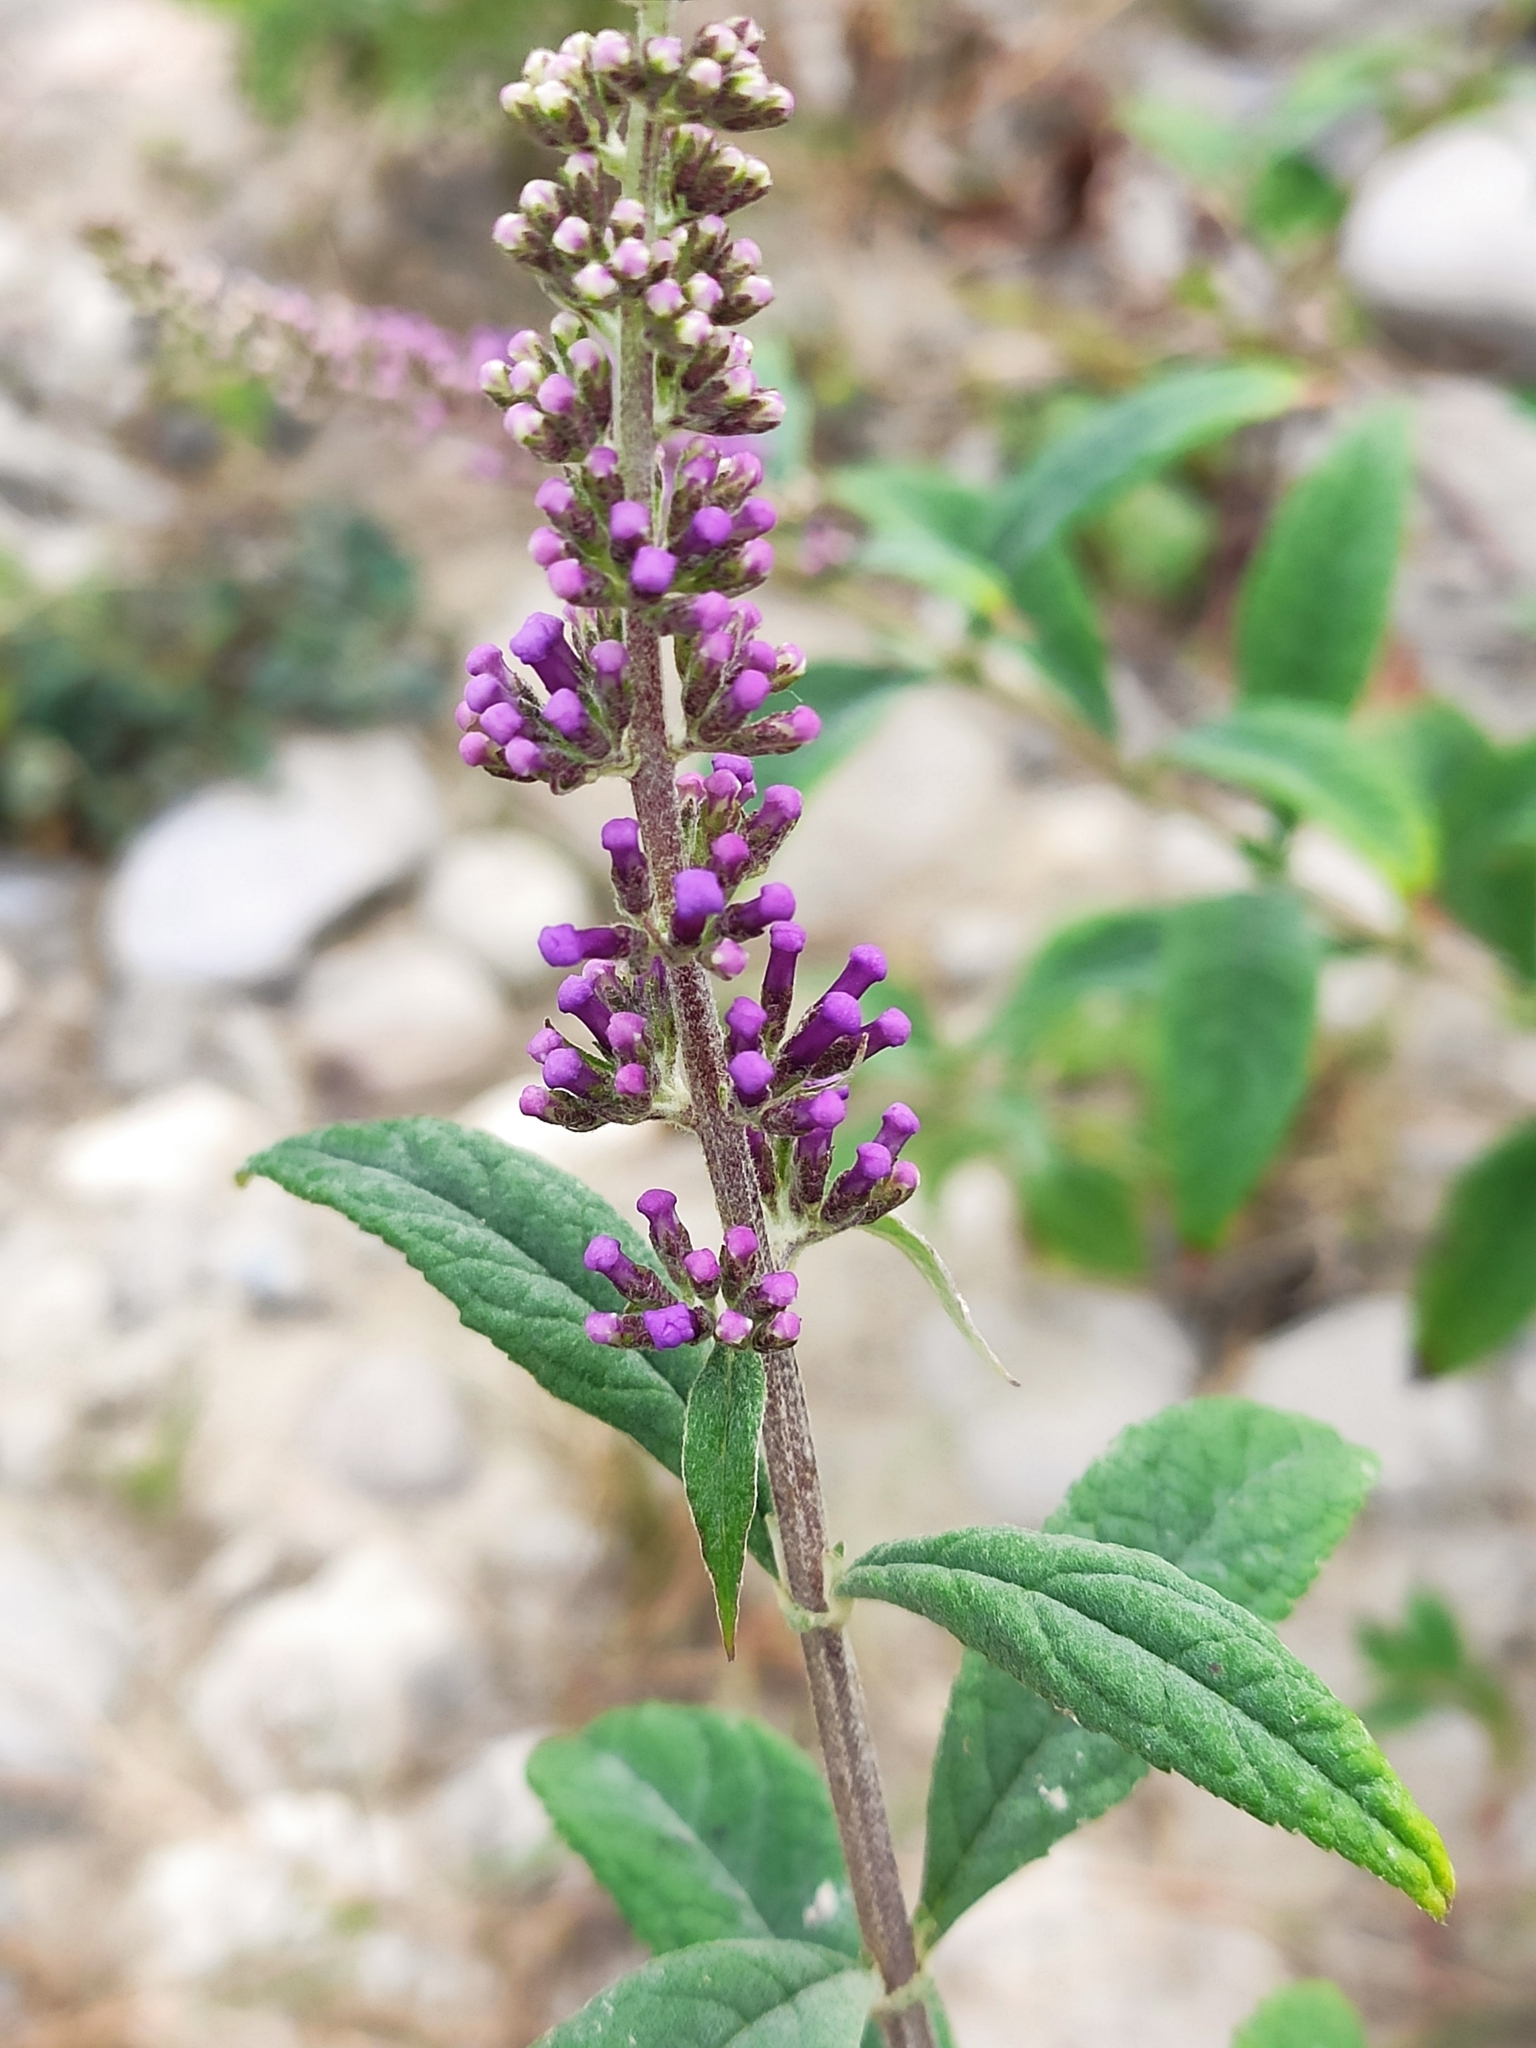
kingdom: Plantae
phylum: Tracheophyta
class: Magnoliopsida
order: Lamiales
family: Scrophulariaceae
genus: Buddleja
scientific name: Buddleja davidii
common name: Butterfly-bush
